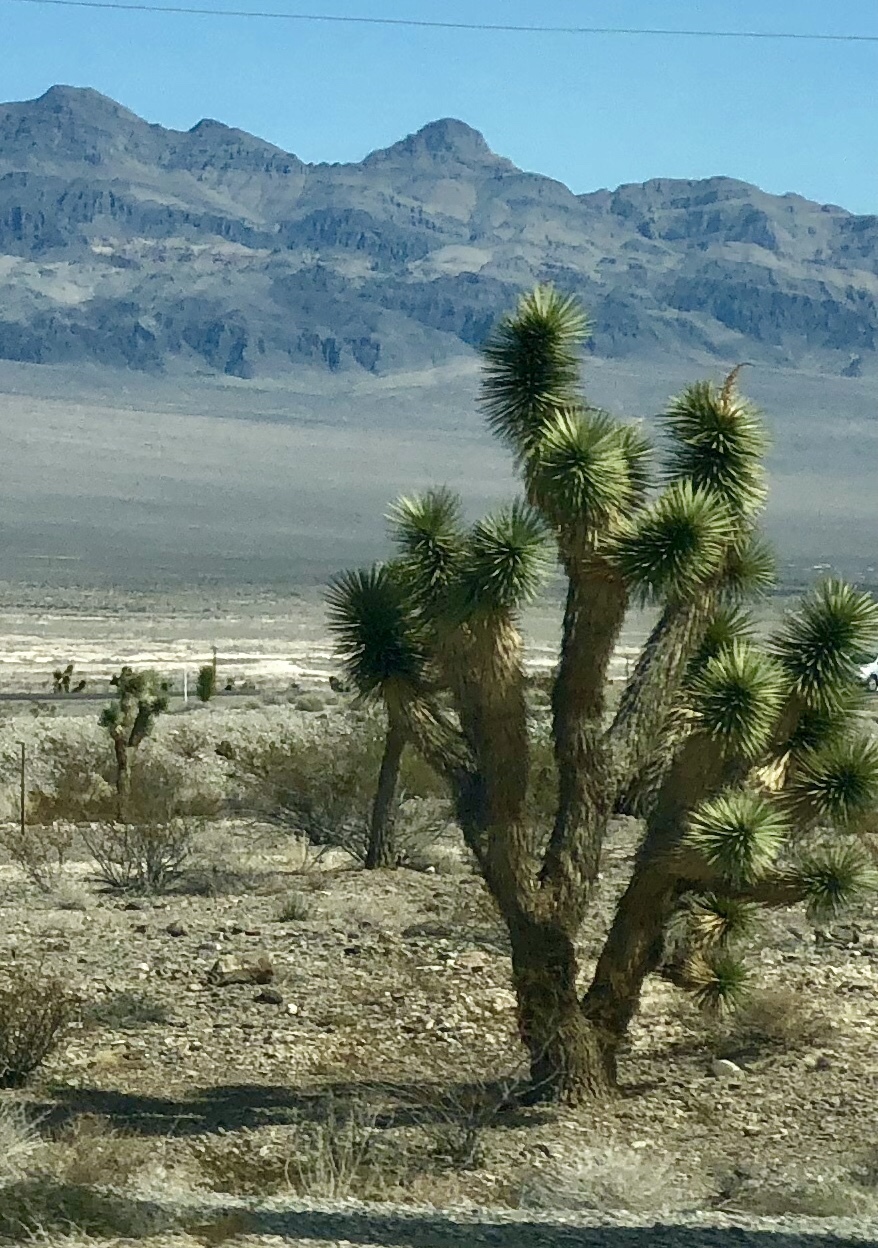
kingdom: Plantae
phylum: Tracheophyta
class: Liliopsida
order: Asparagales
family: Asparagaceae
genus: Yucca
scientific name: Yucca brevifolia
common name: Joshua tree
